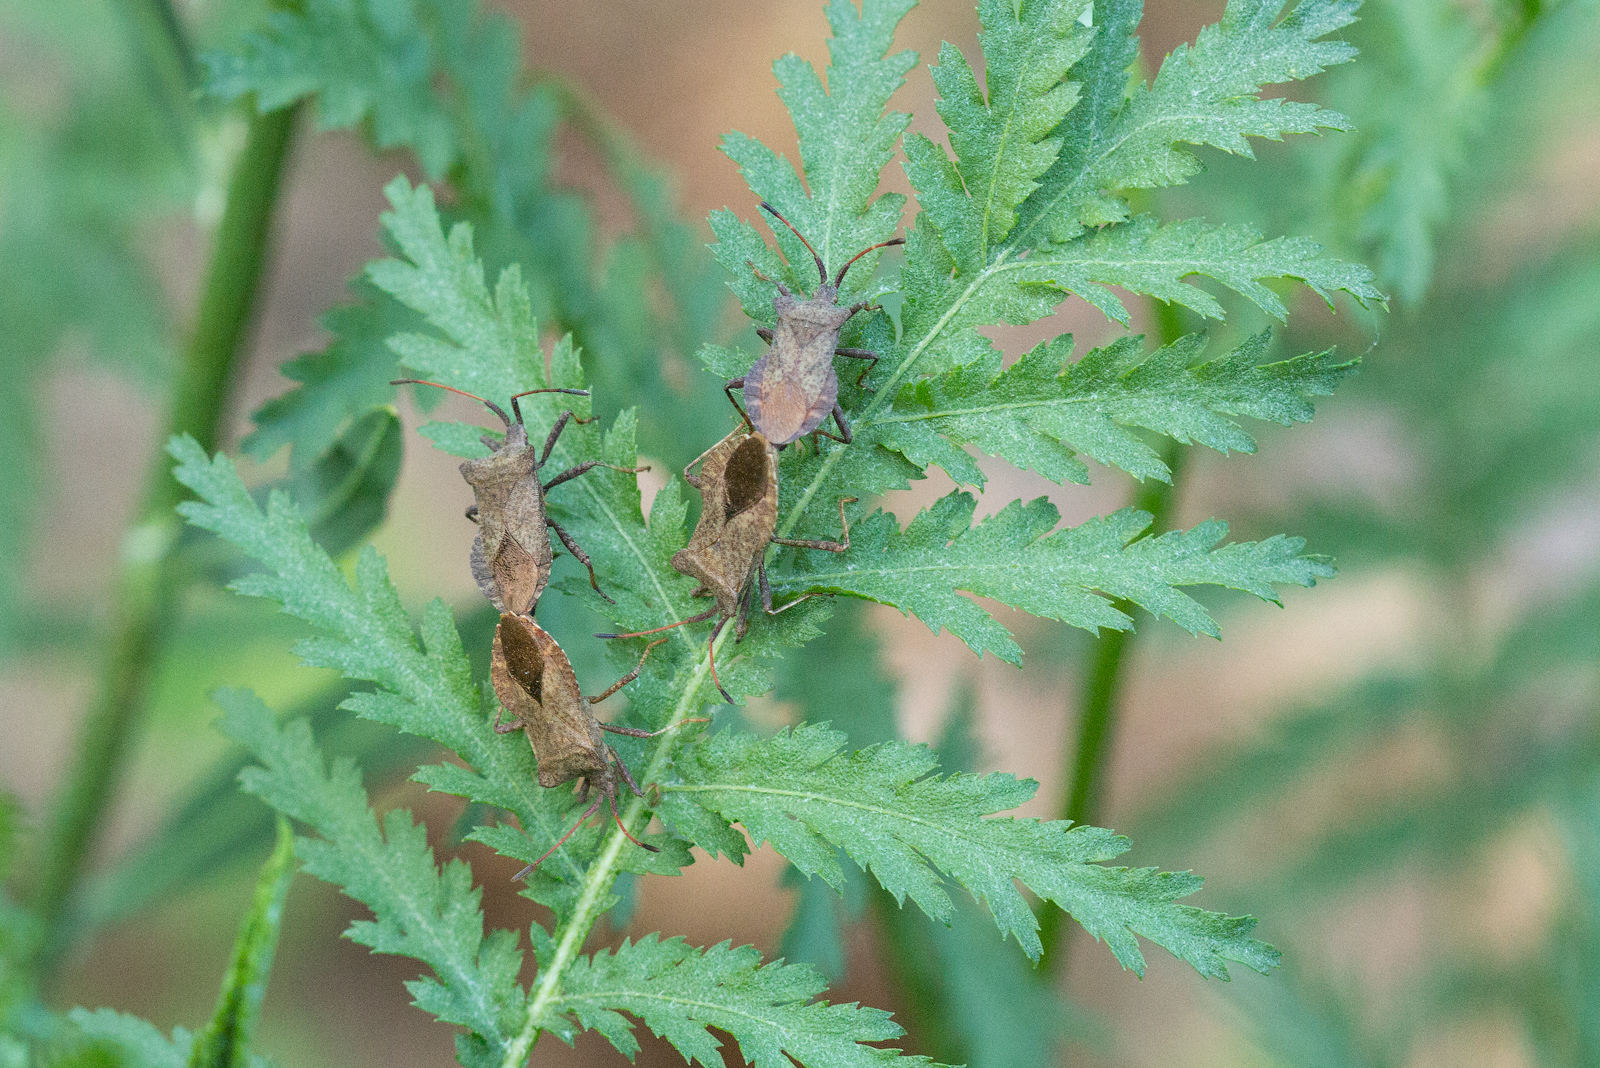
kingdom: Animalia
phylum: Arthropoda
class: Insecta
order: Hemiptera
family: Coreidae
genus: Coreus
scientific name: Coreus marginatus
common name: Dock bug
